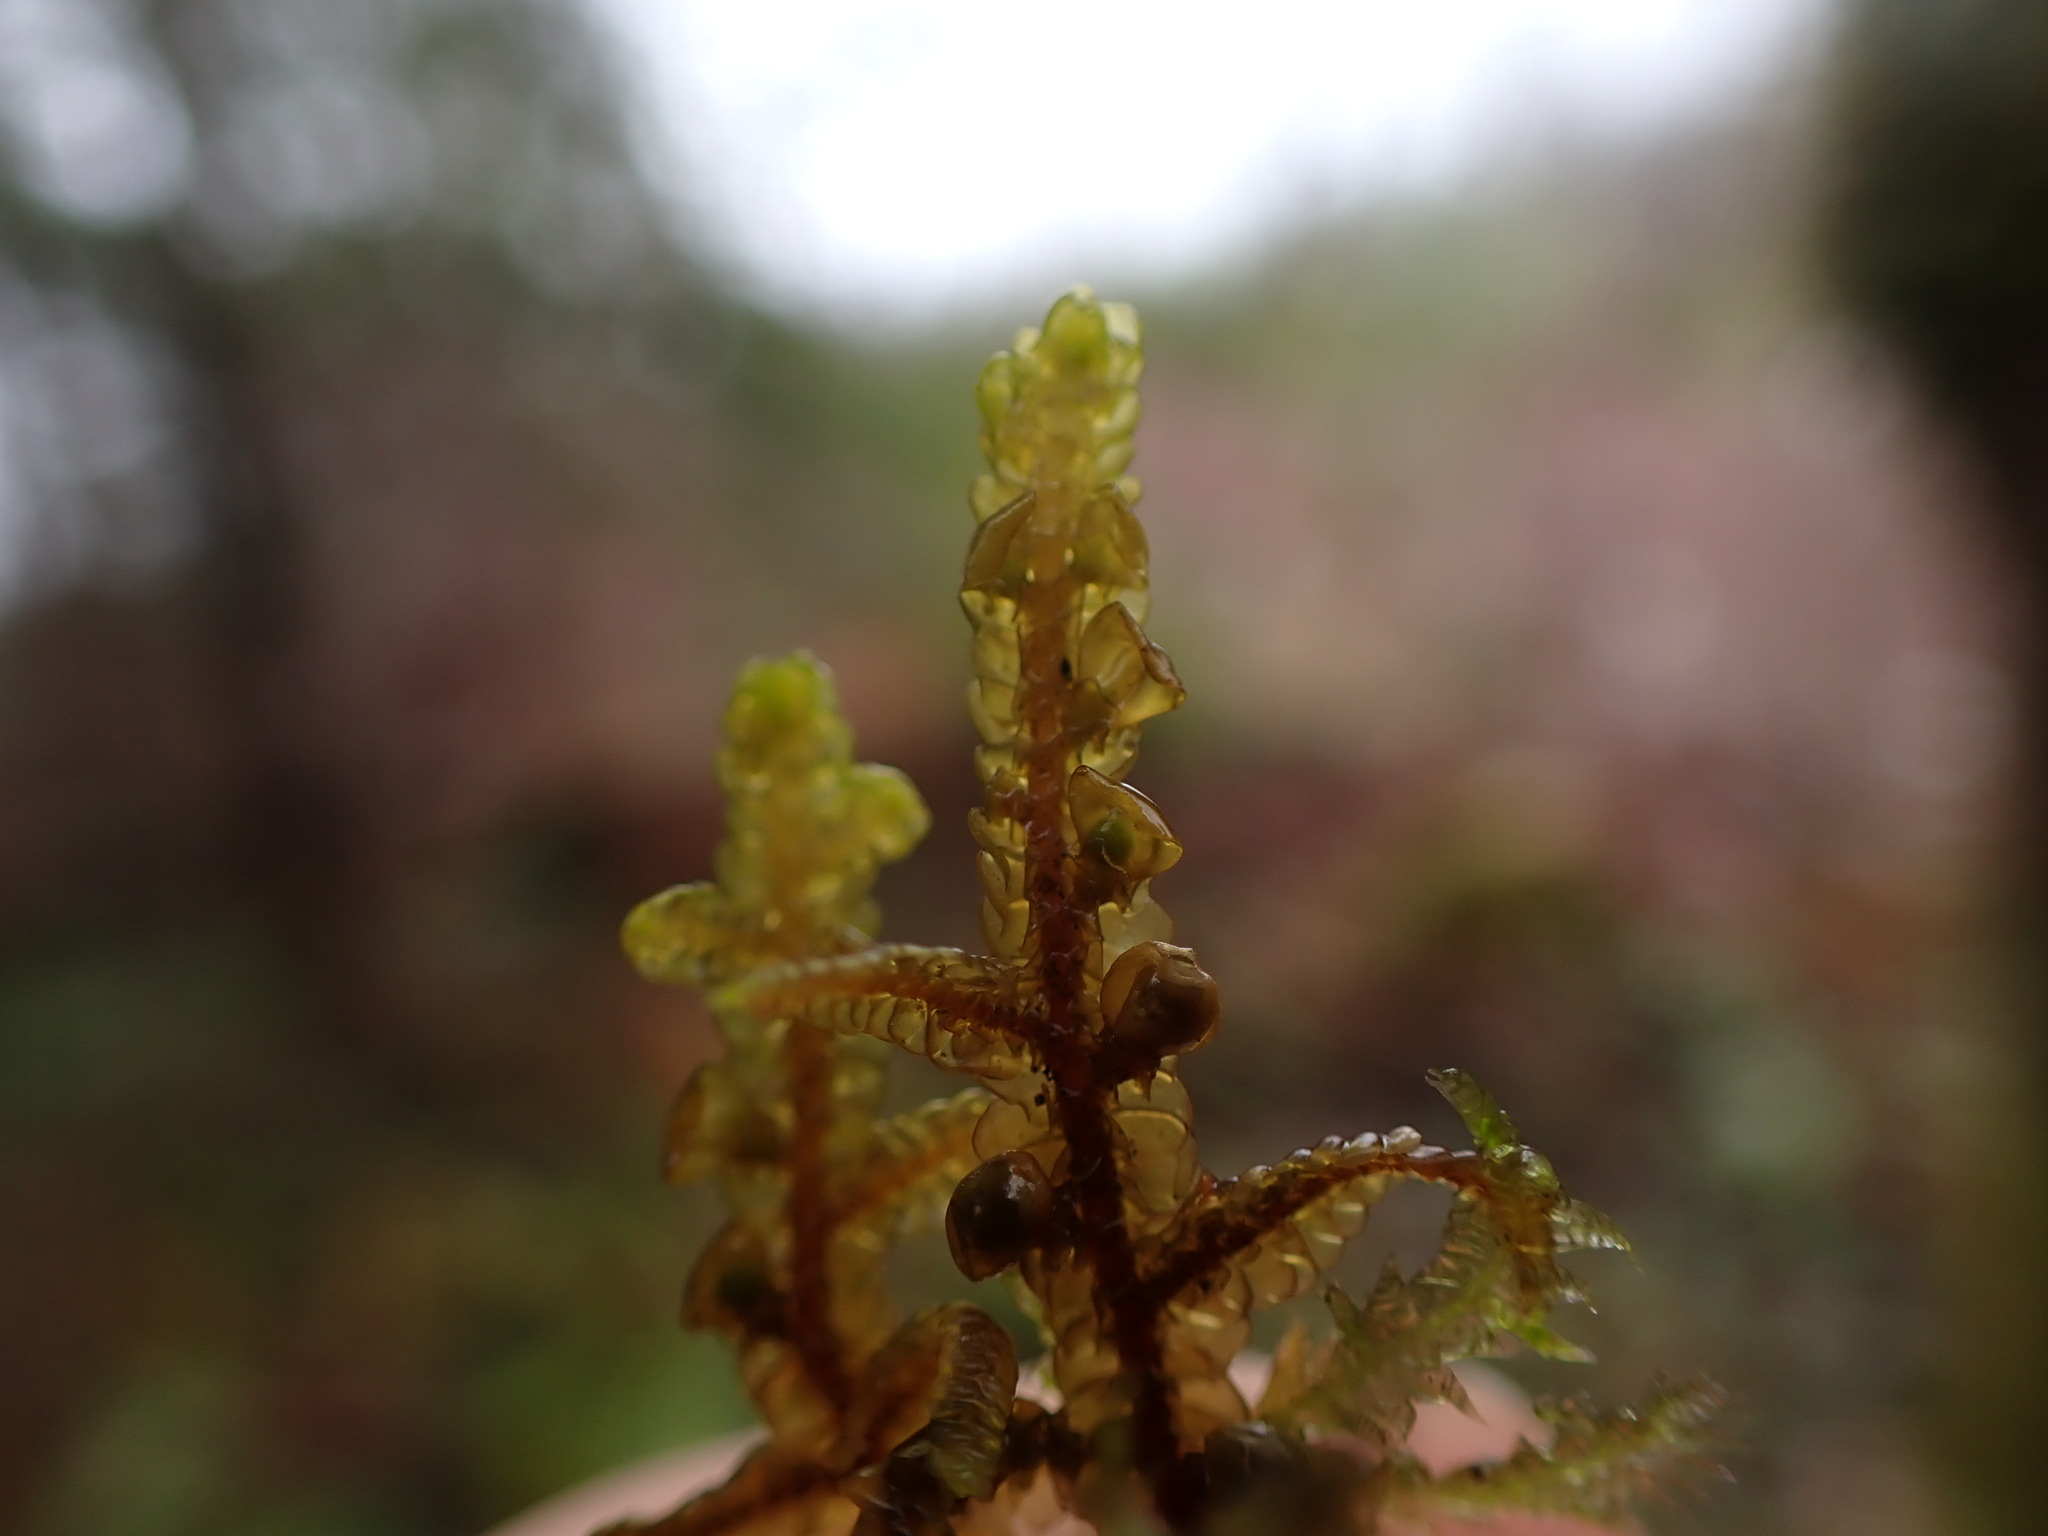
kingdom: Plantae
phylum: Marchantiophyta
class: Jungermanniopsida
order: Porellales
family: Porellaceae
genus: Porella
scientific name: Porella navicularis
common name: Tree ruffle liverwort
